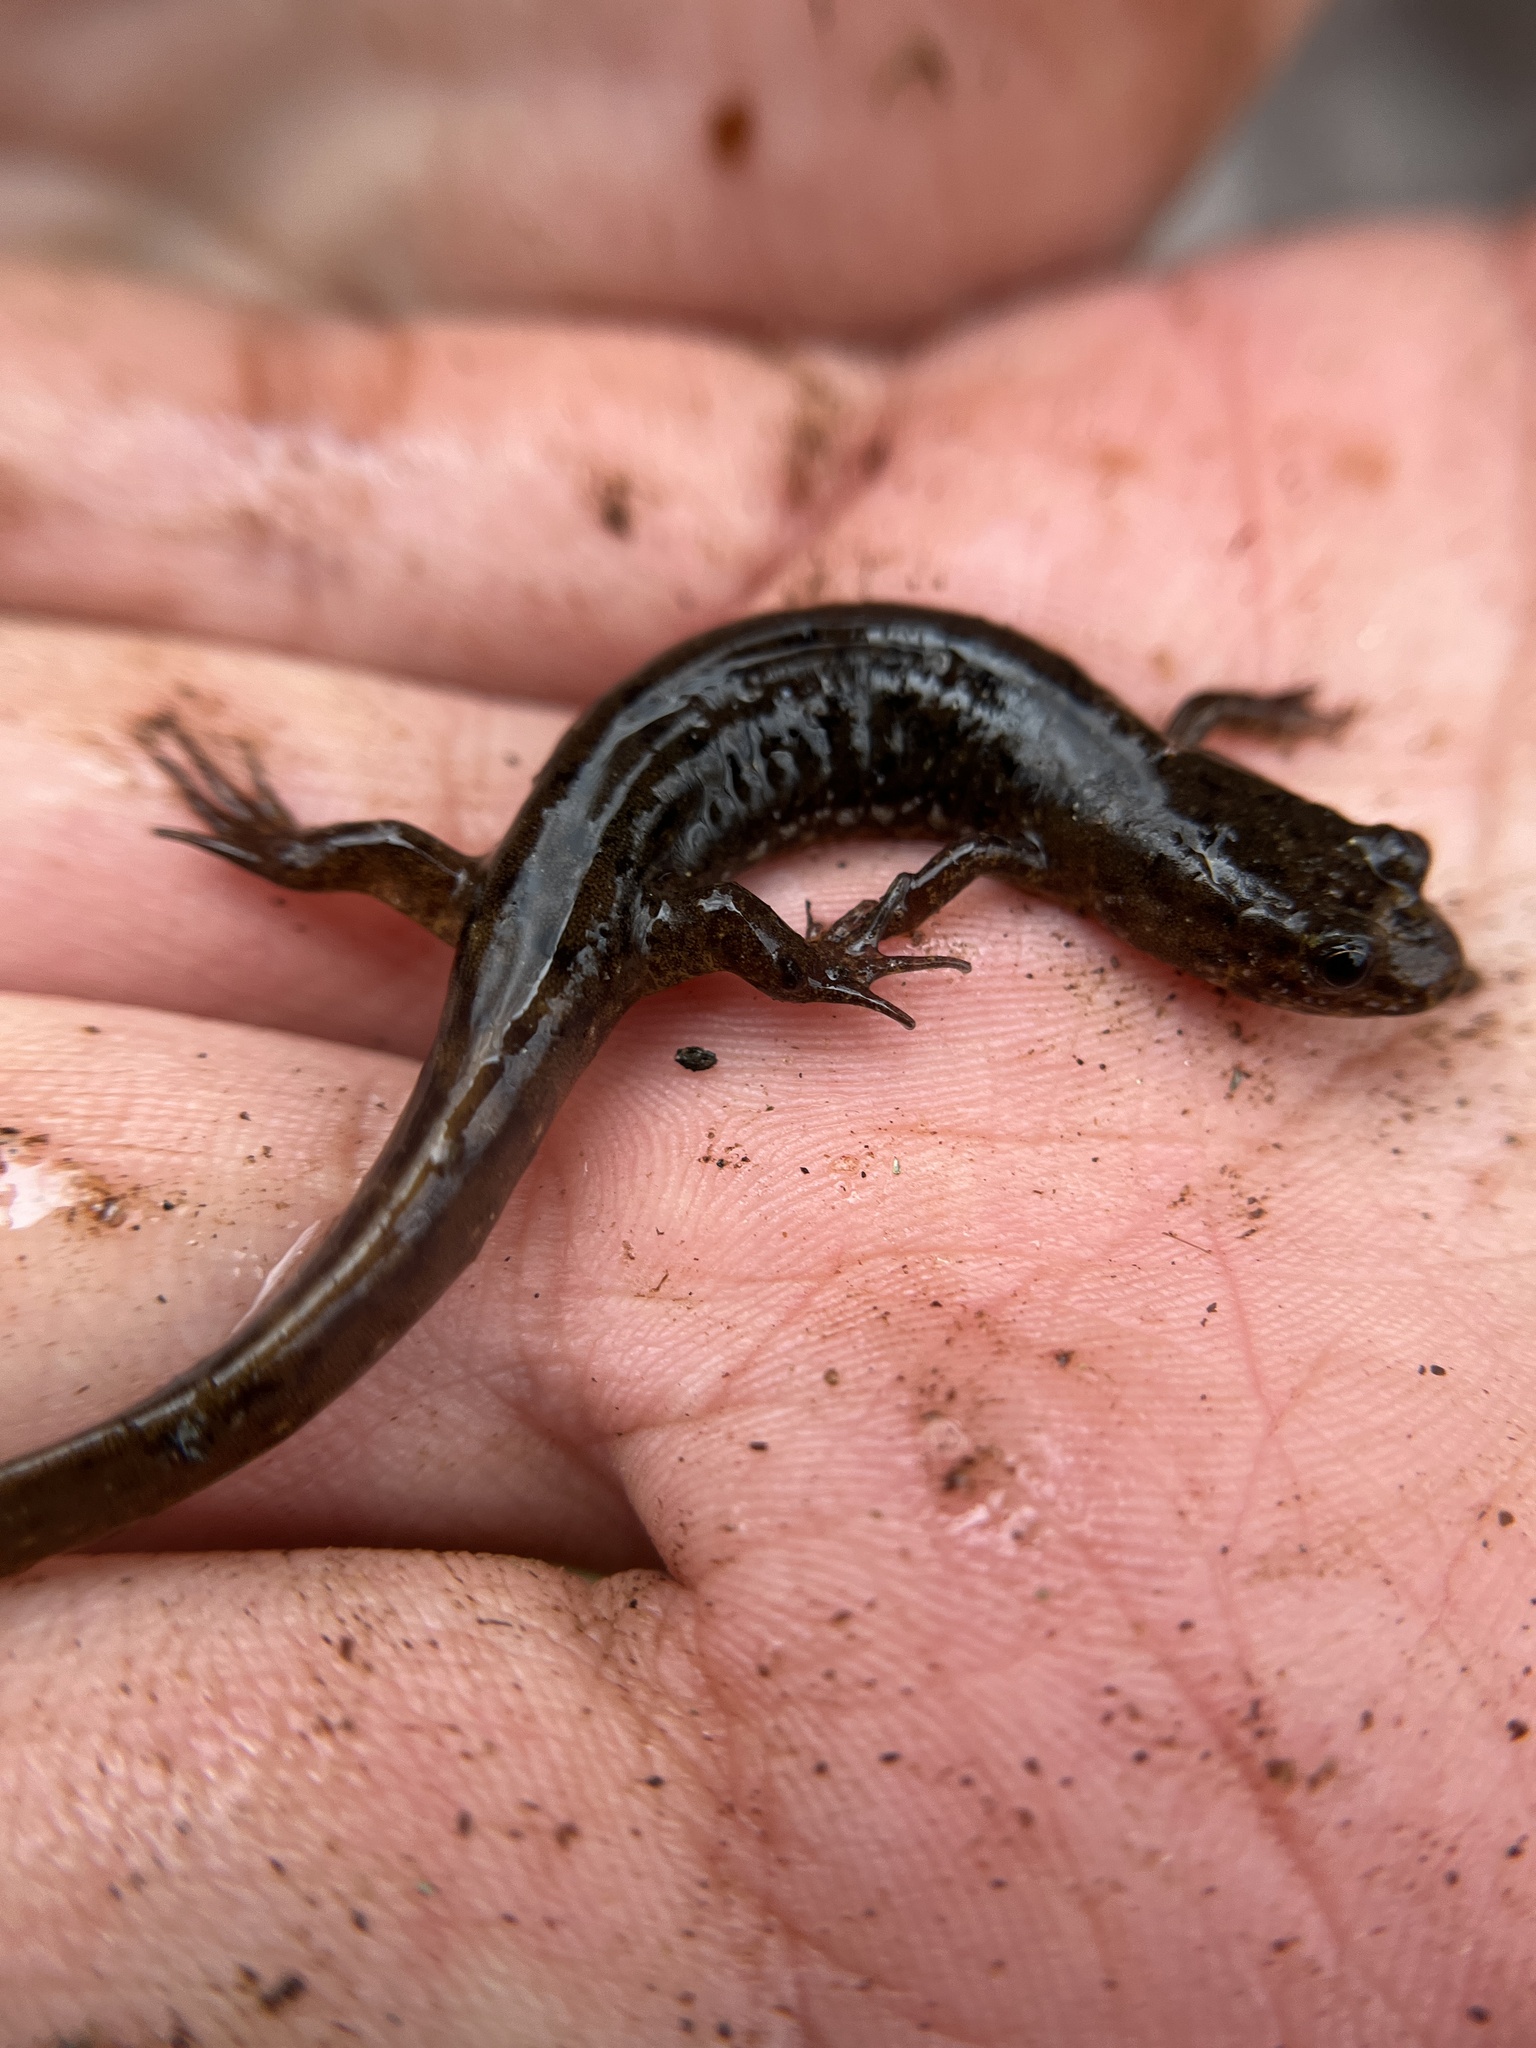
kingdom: Animalia
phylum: Chordata
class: Amphibia
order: Caudata
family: Plethodontidae
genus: Desmognathus
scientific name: Desmognathus planiceps
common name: Flat-headed salamander
